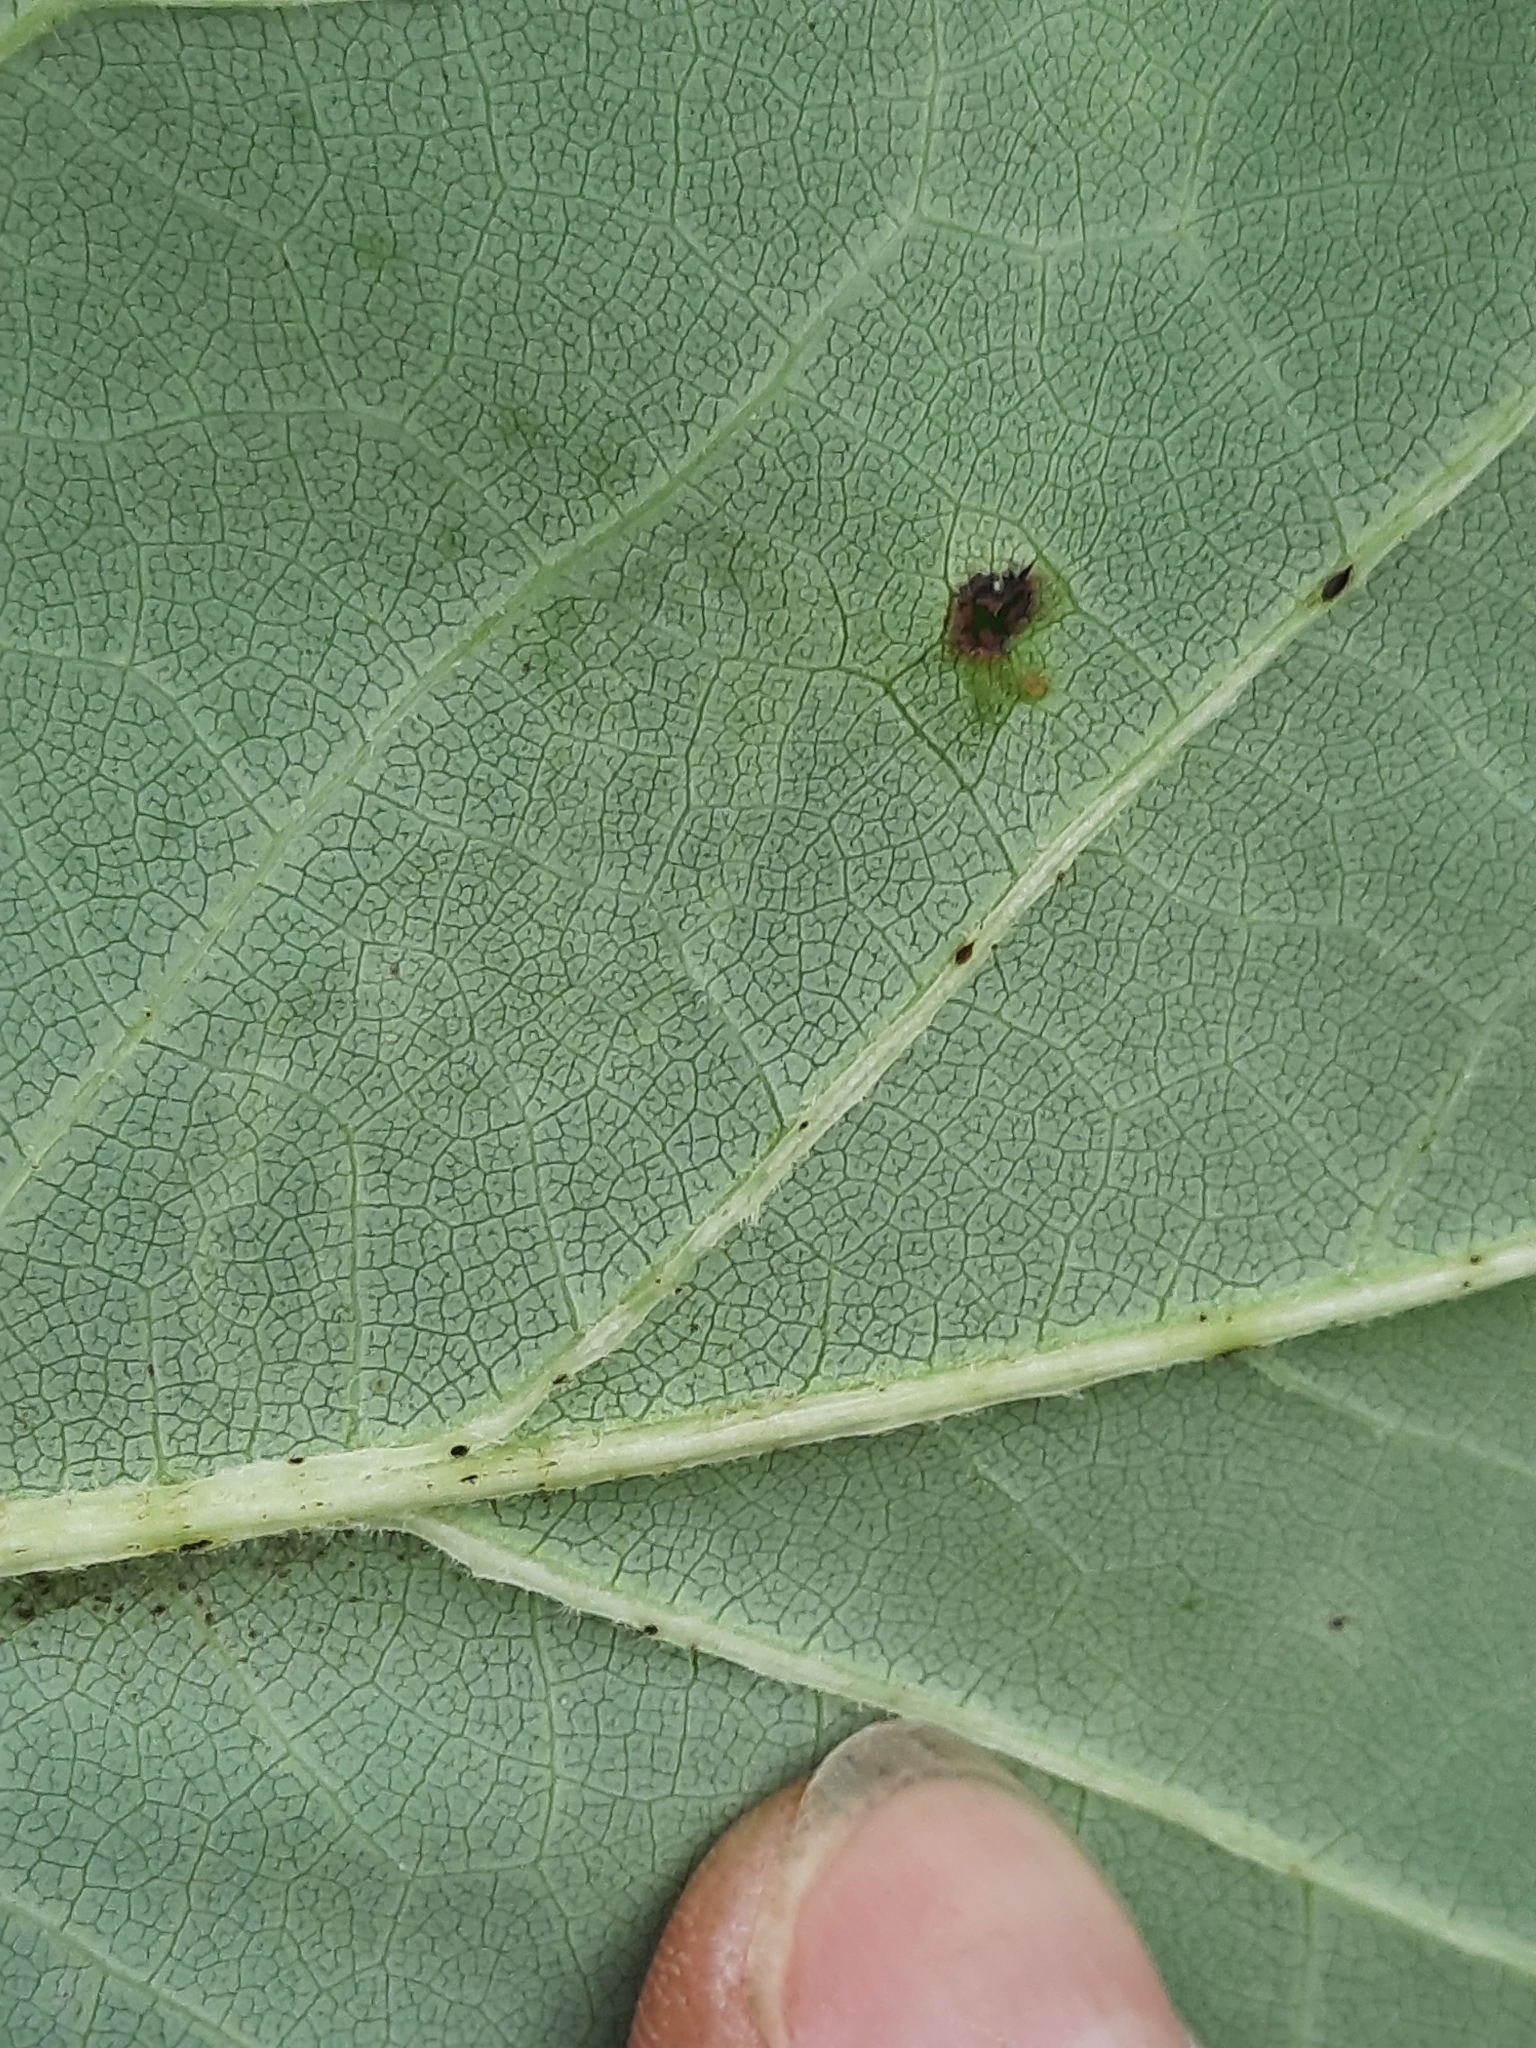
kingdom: Animalia
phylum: Arthropoda
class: Insecta
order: Lepidoptera
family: Gracillariidae
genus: Phyllocnistis
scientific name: Phyllocnistis liriodendronella
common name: Tulip tree leaf miner
